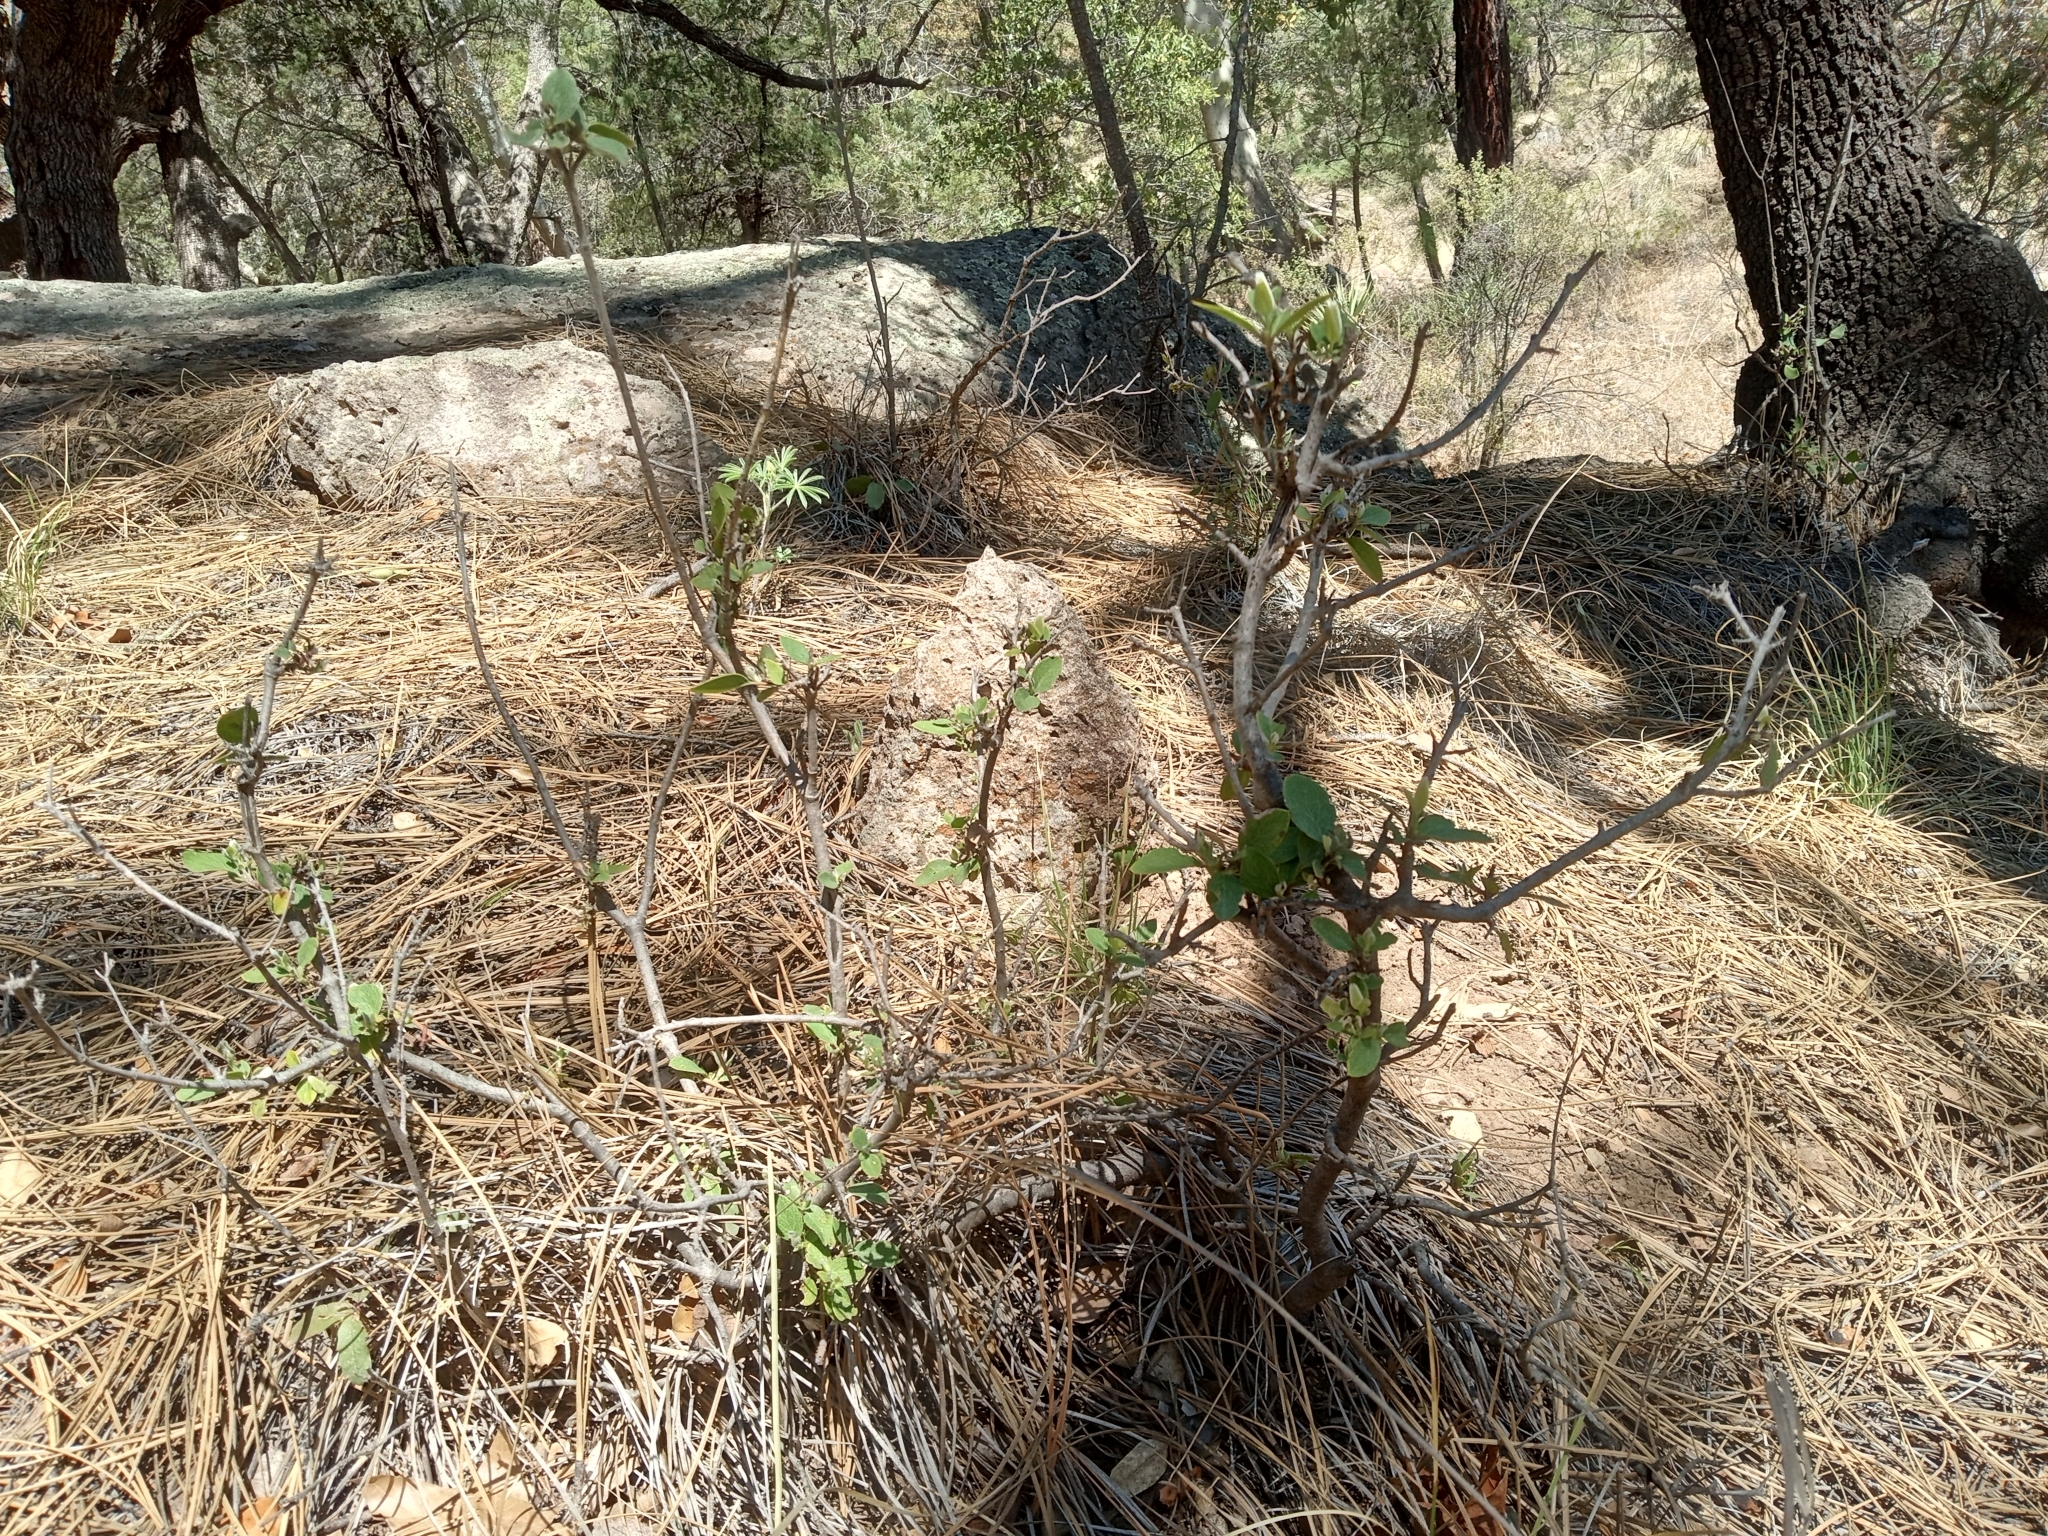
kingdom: Plantae
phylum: Tracheophyta
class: Magnoliopsida
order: Garryales
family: Garryaceae
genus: Garrya
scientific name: Garrya wrightii
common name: Wright's silktassel
